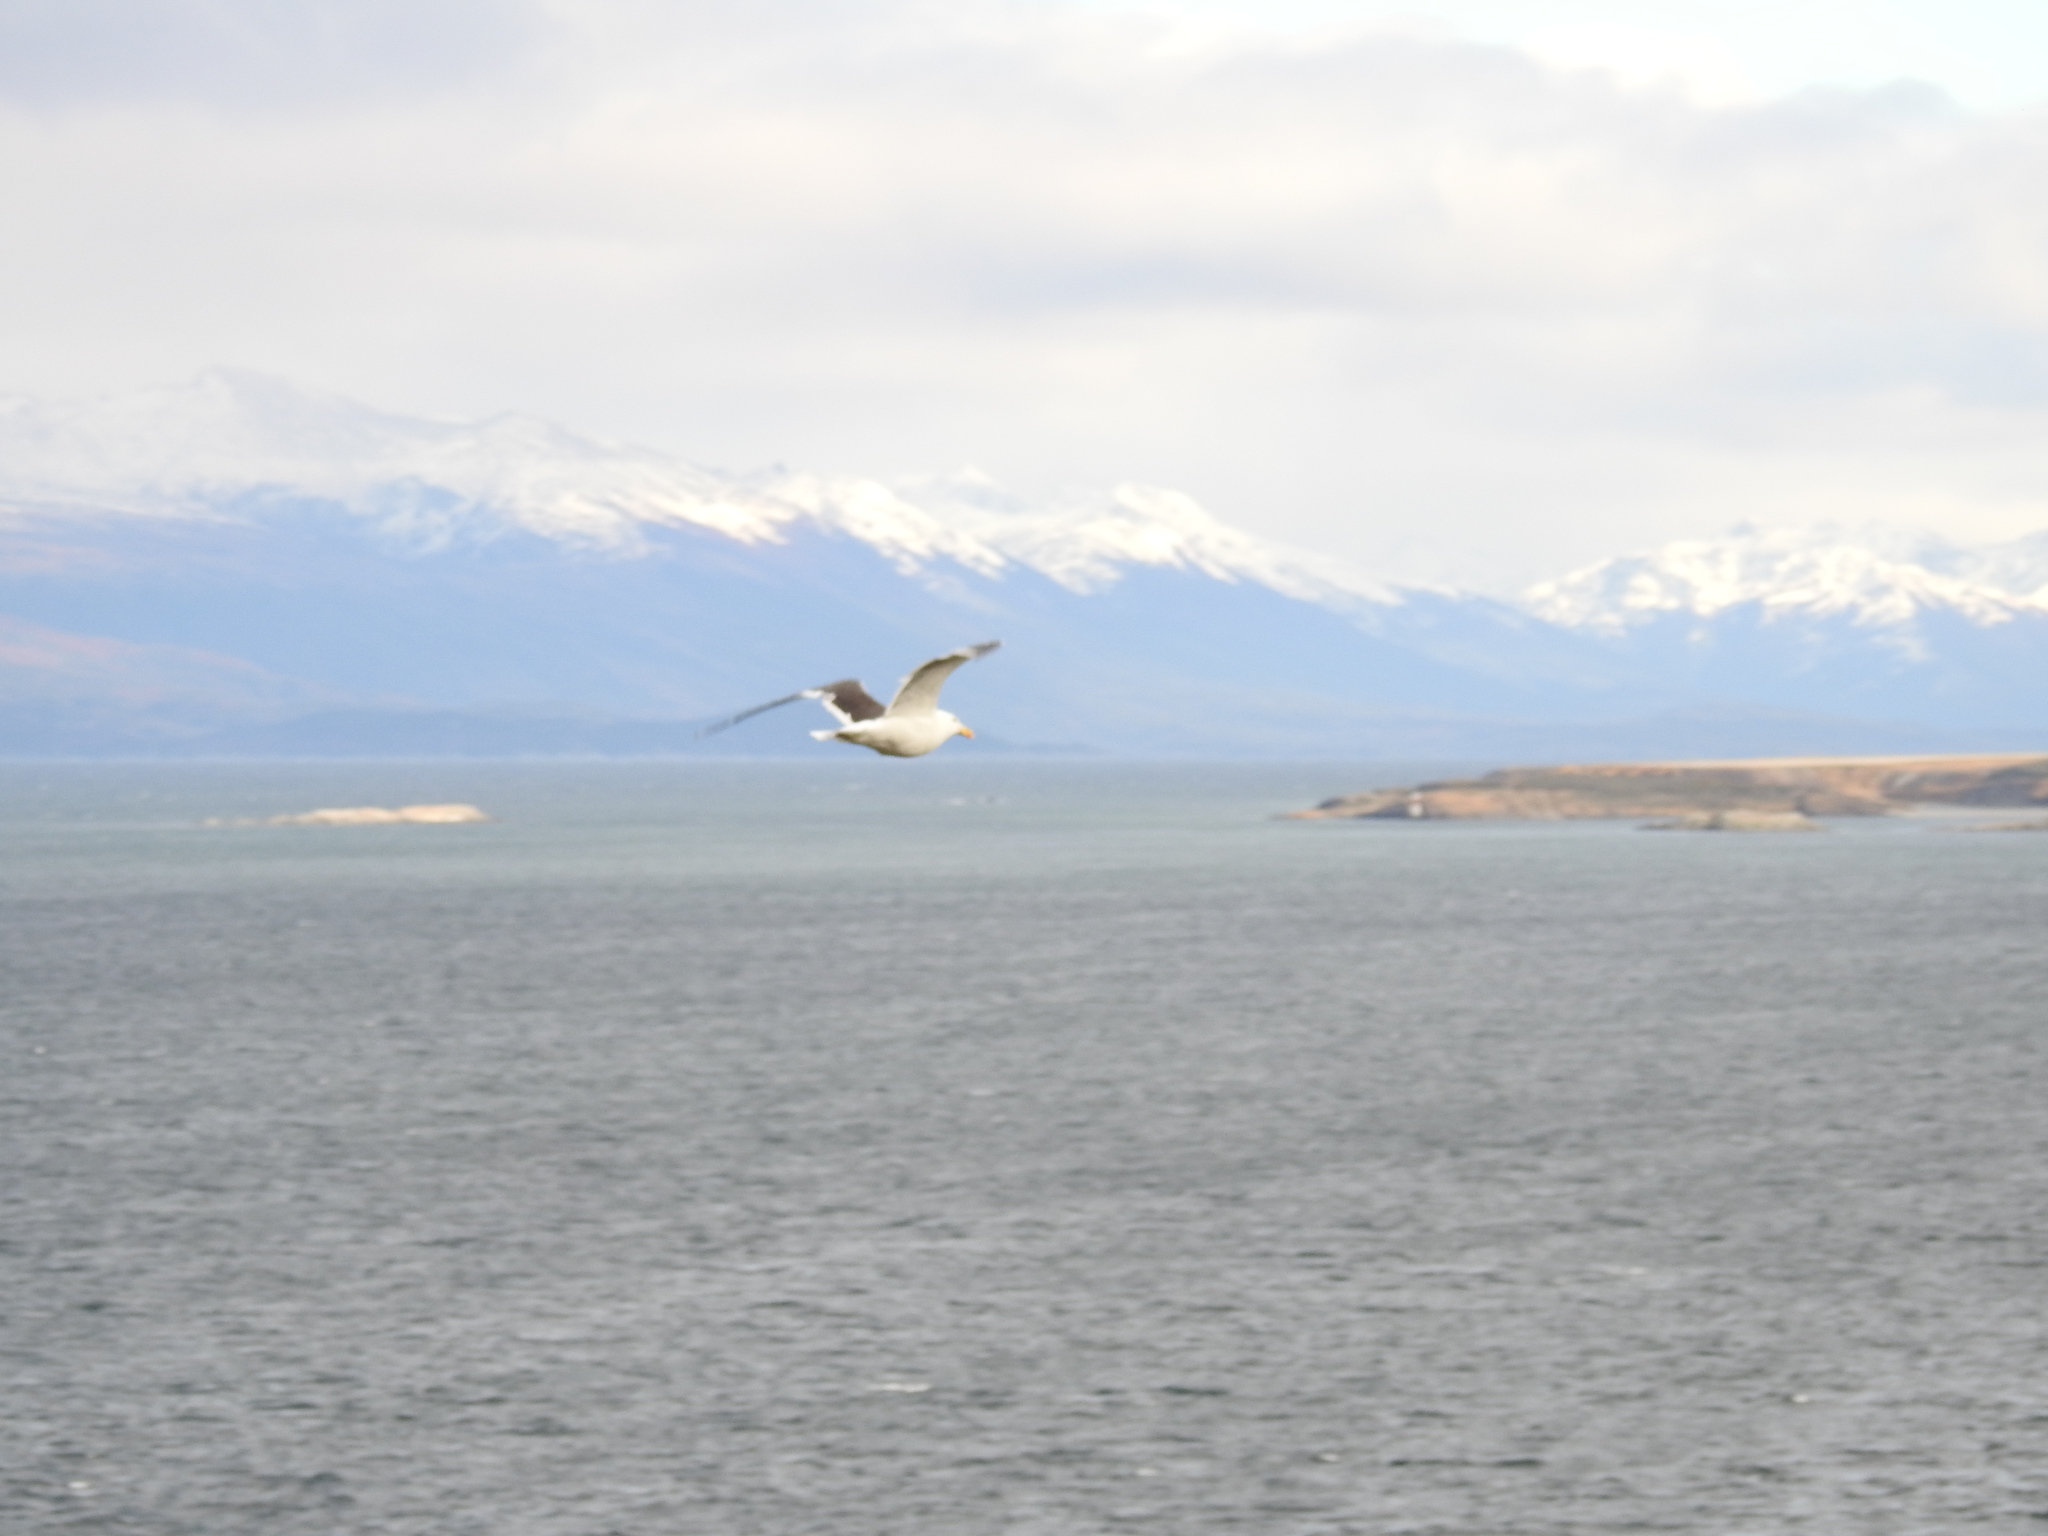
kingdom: Animalia
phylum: Chordata
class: Aves
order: Charadriiformes
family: Laridae
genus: Larus
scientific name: Larus dominicanus
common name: Kelp gull
